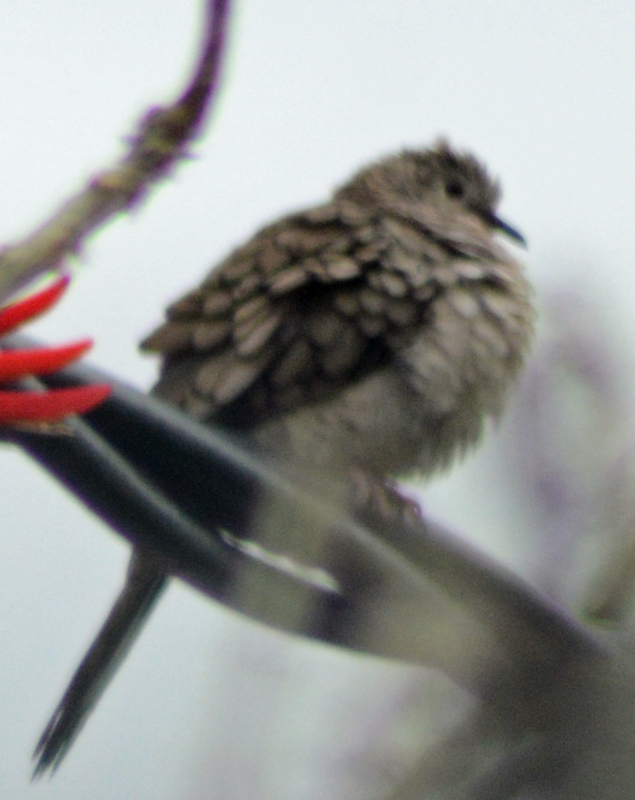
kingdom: Animalia
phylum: Chordata
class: Aves
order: Columbiformes
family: Columbidae
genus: Columbina
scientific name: Columbina inca
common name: Inca dove
